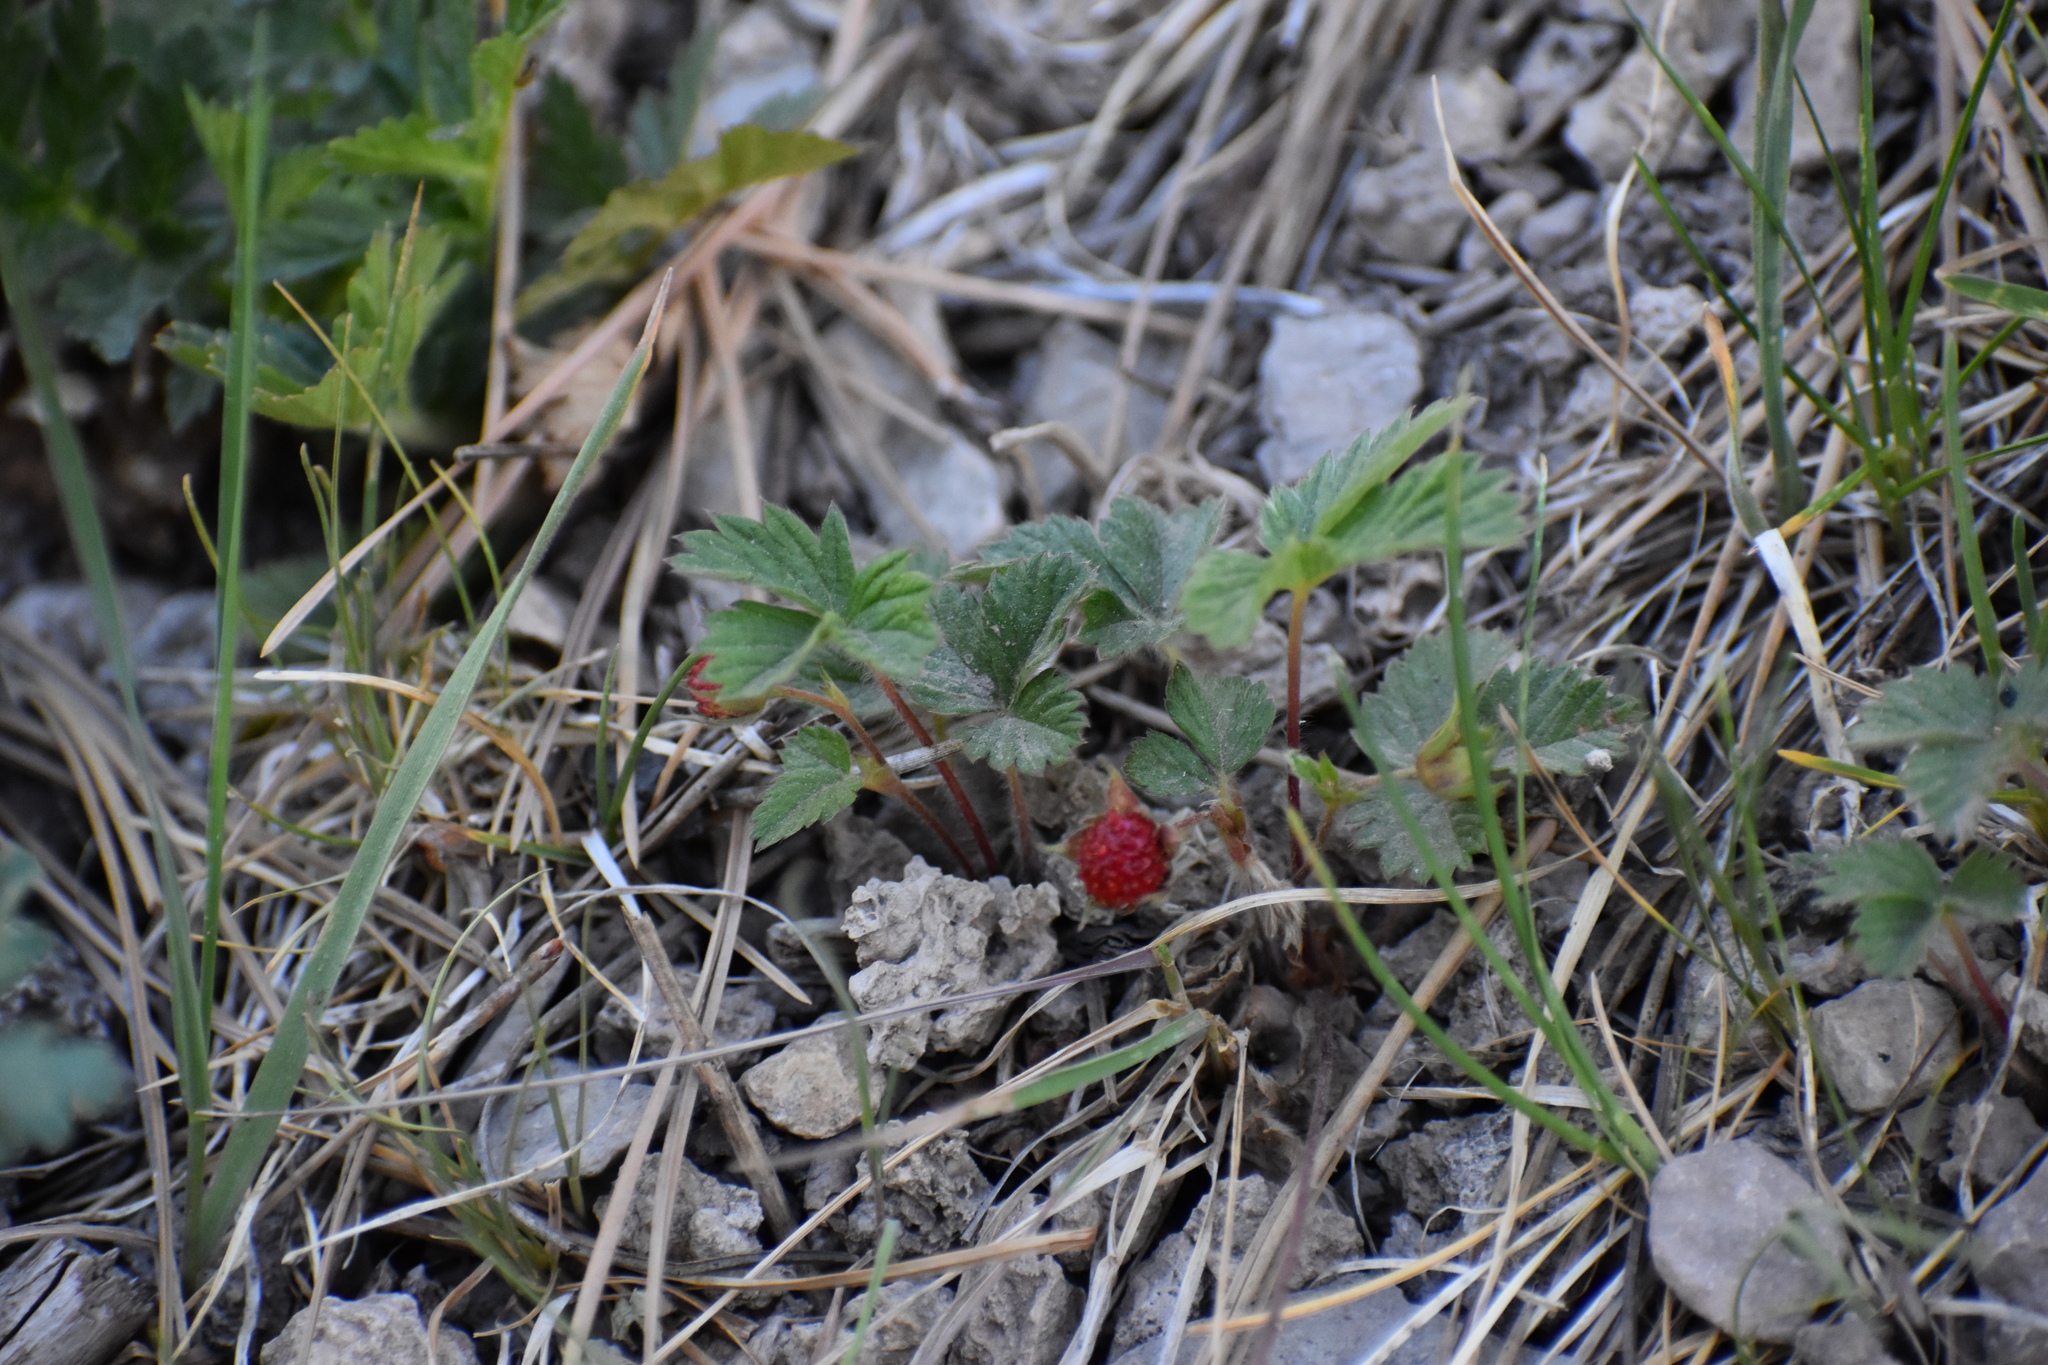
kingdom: Plantae
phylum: Tracheophyta
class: Magnoliopsida
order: Rosales
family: Rosaceae
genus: Fragaria
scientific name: Fragaria vesca
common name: Wild strawberry
